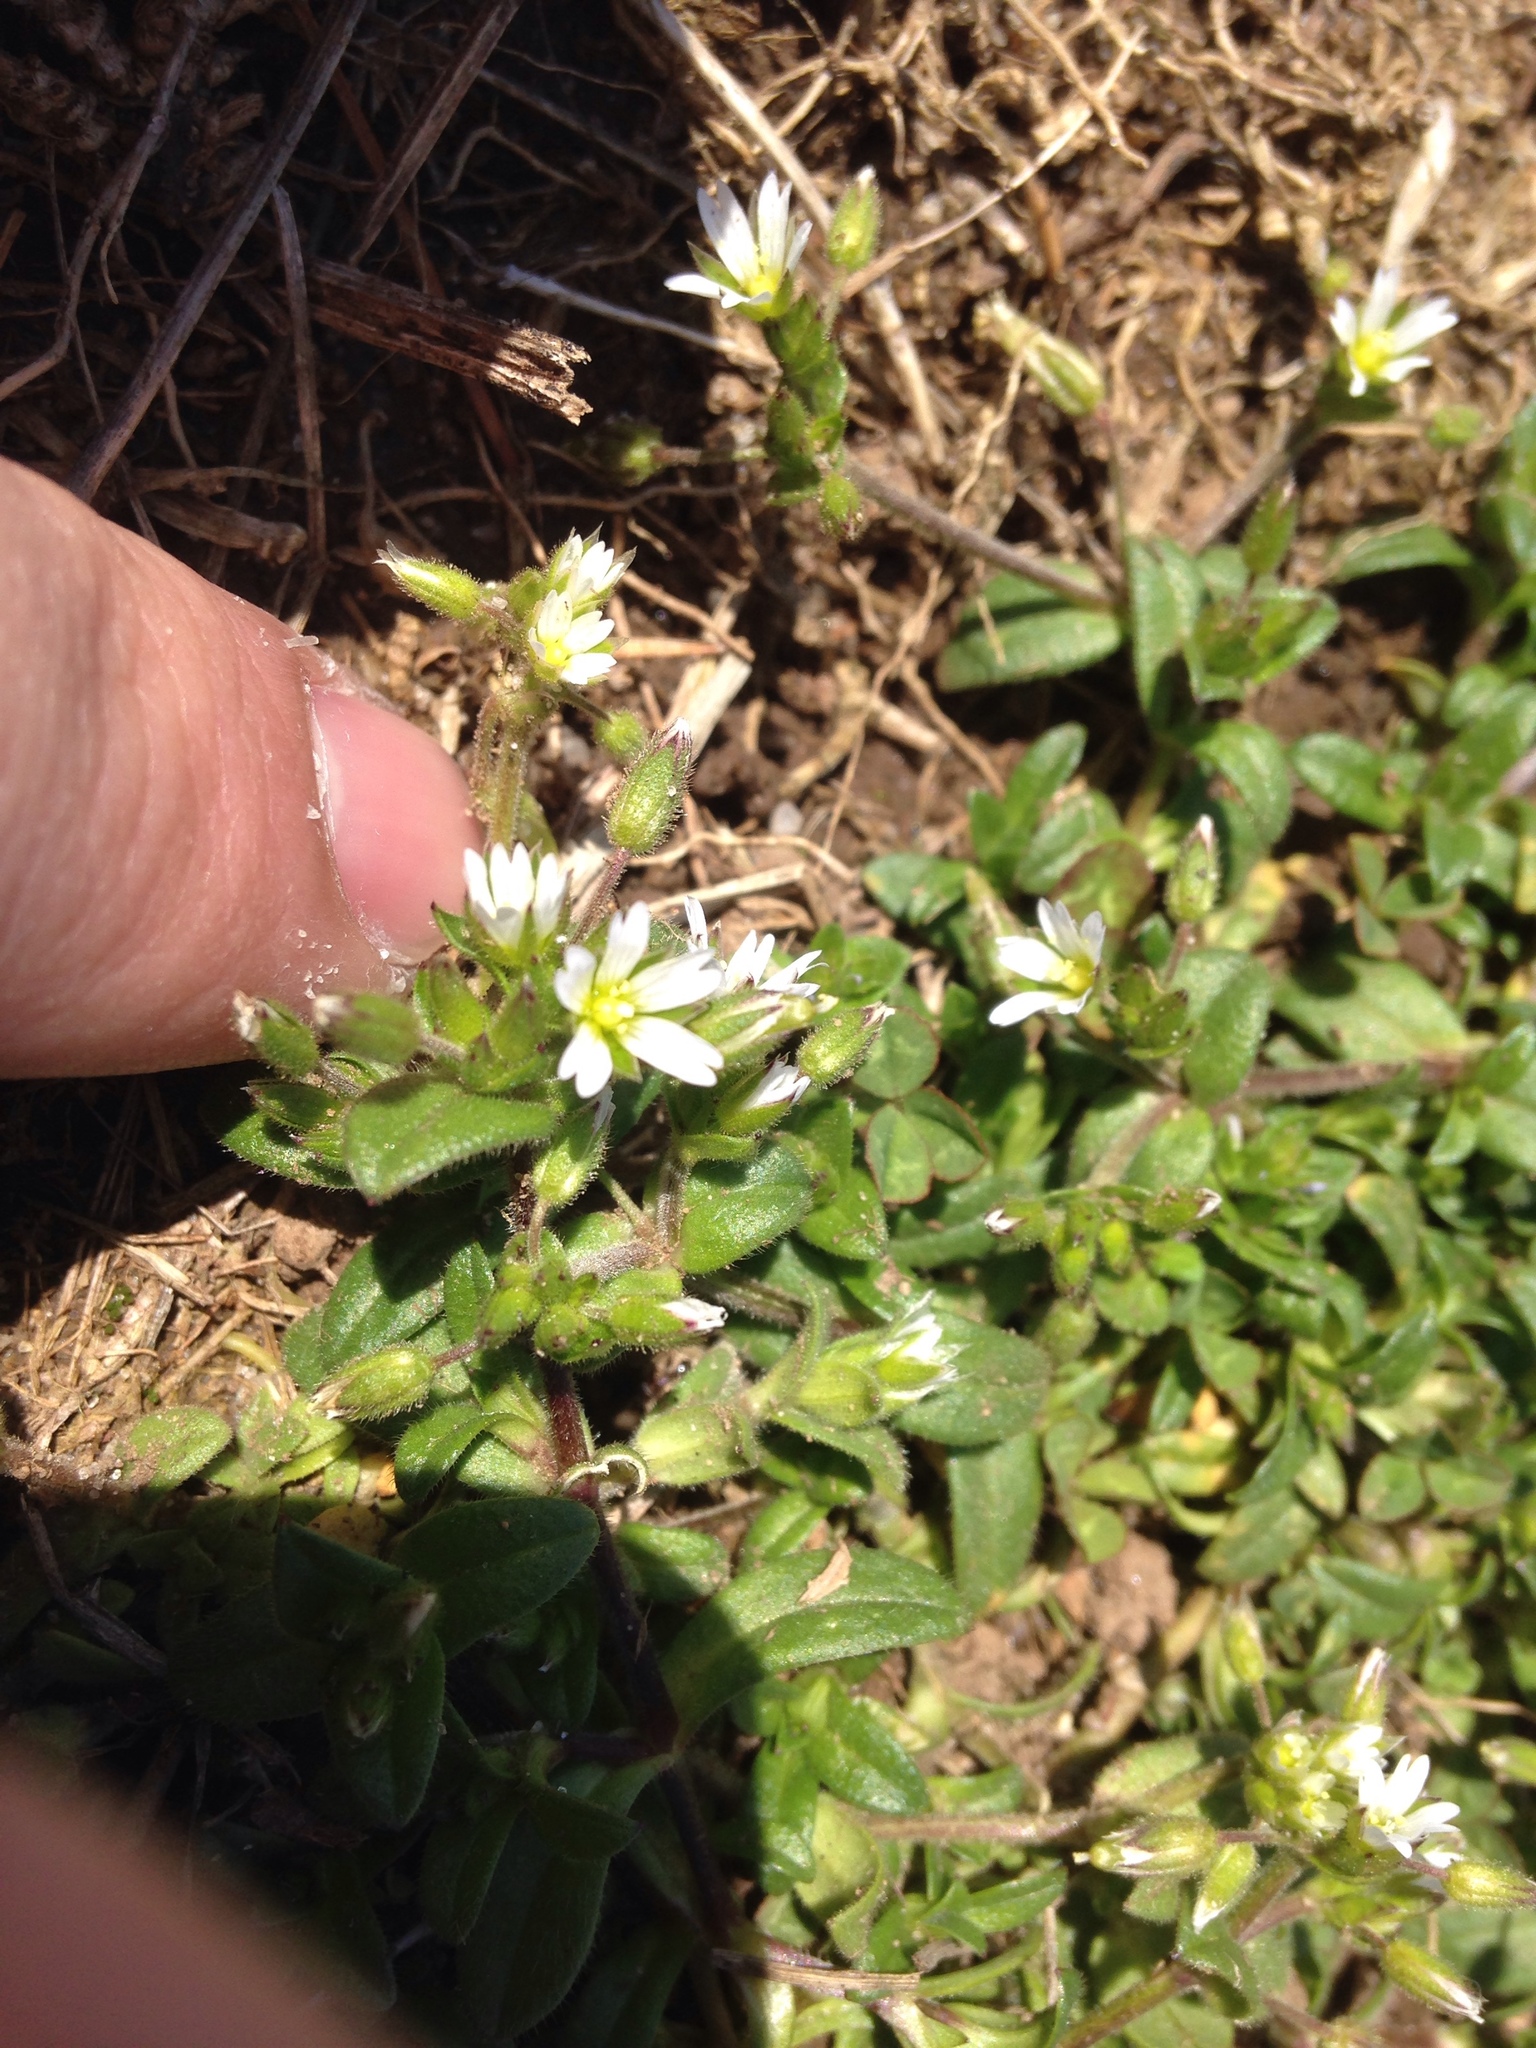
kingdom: Plantae
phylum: Tracheophyta
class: Magnoliopsida
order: Caryophyllales
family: Caryophyllaceae
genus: Cerastium
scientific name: Cerastium fontanum
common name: Common mouse-ear
